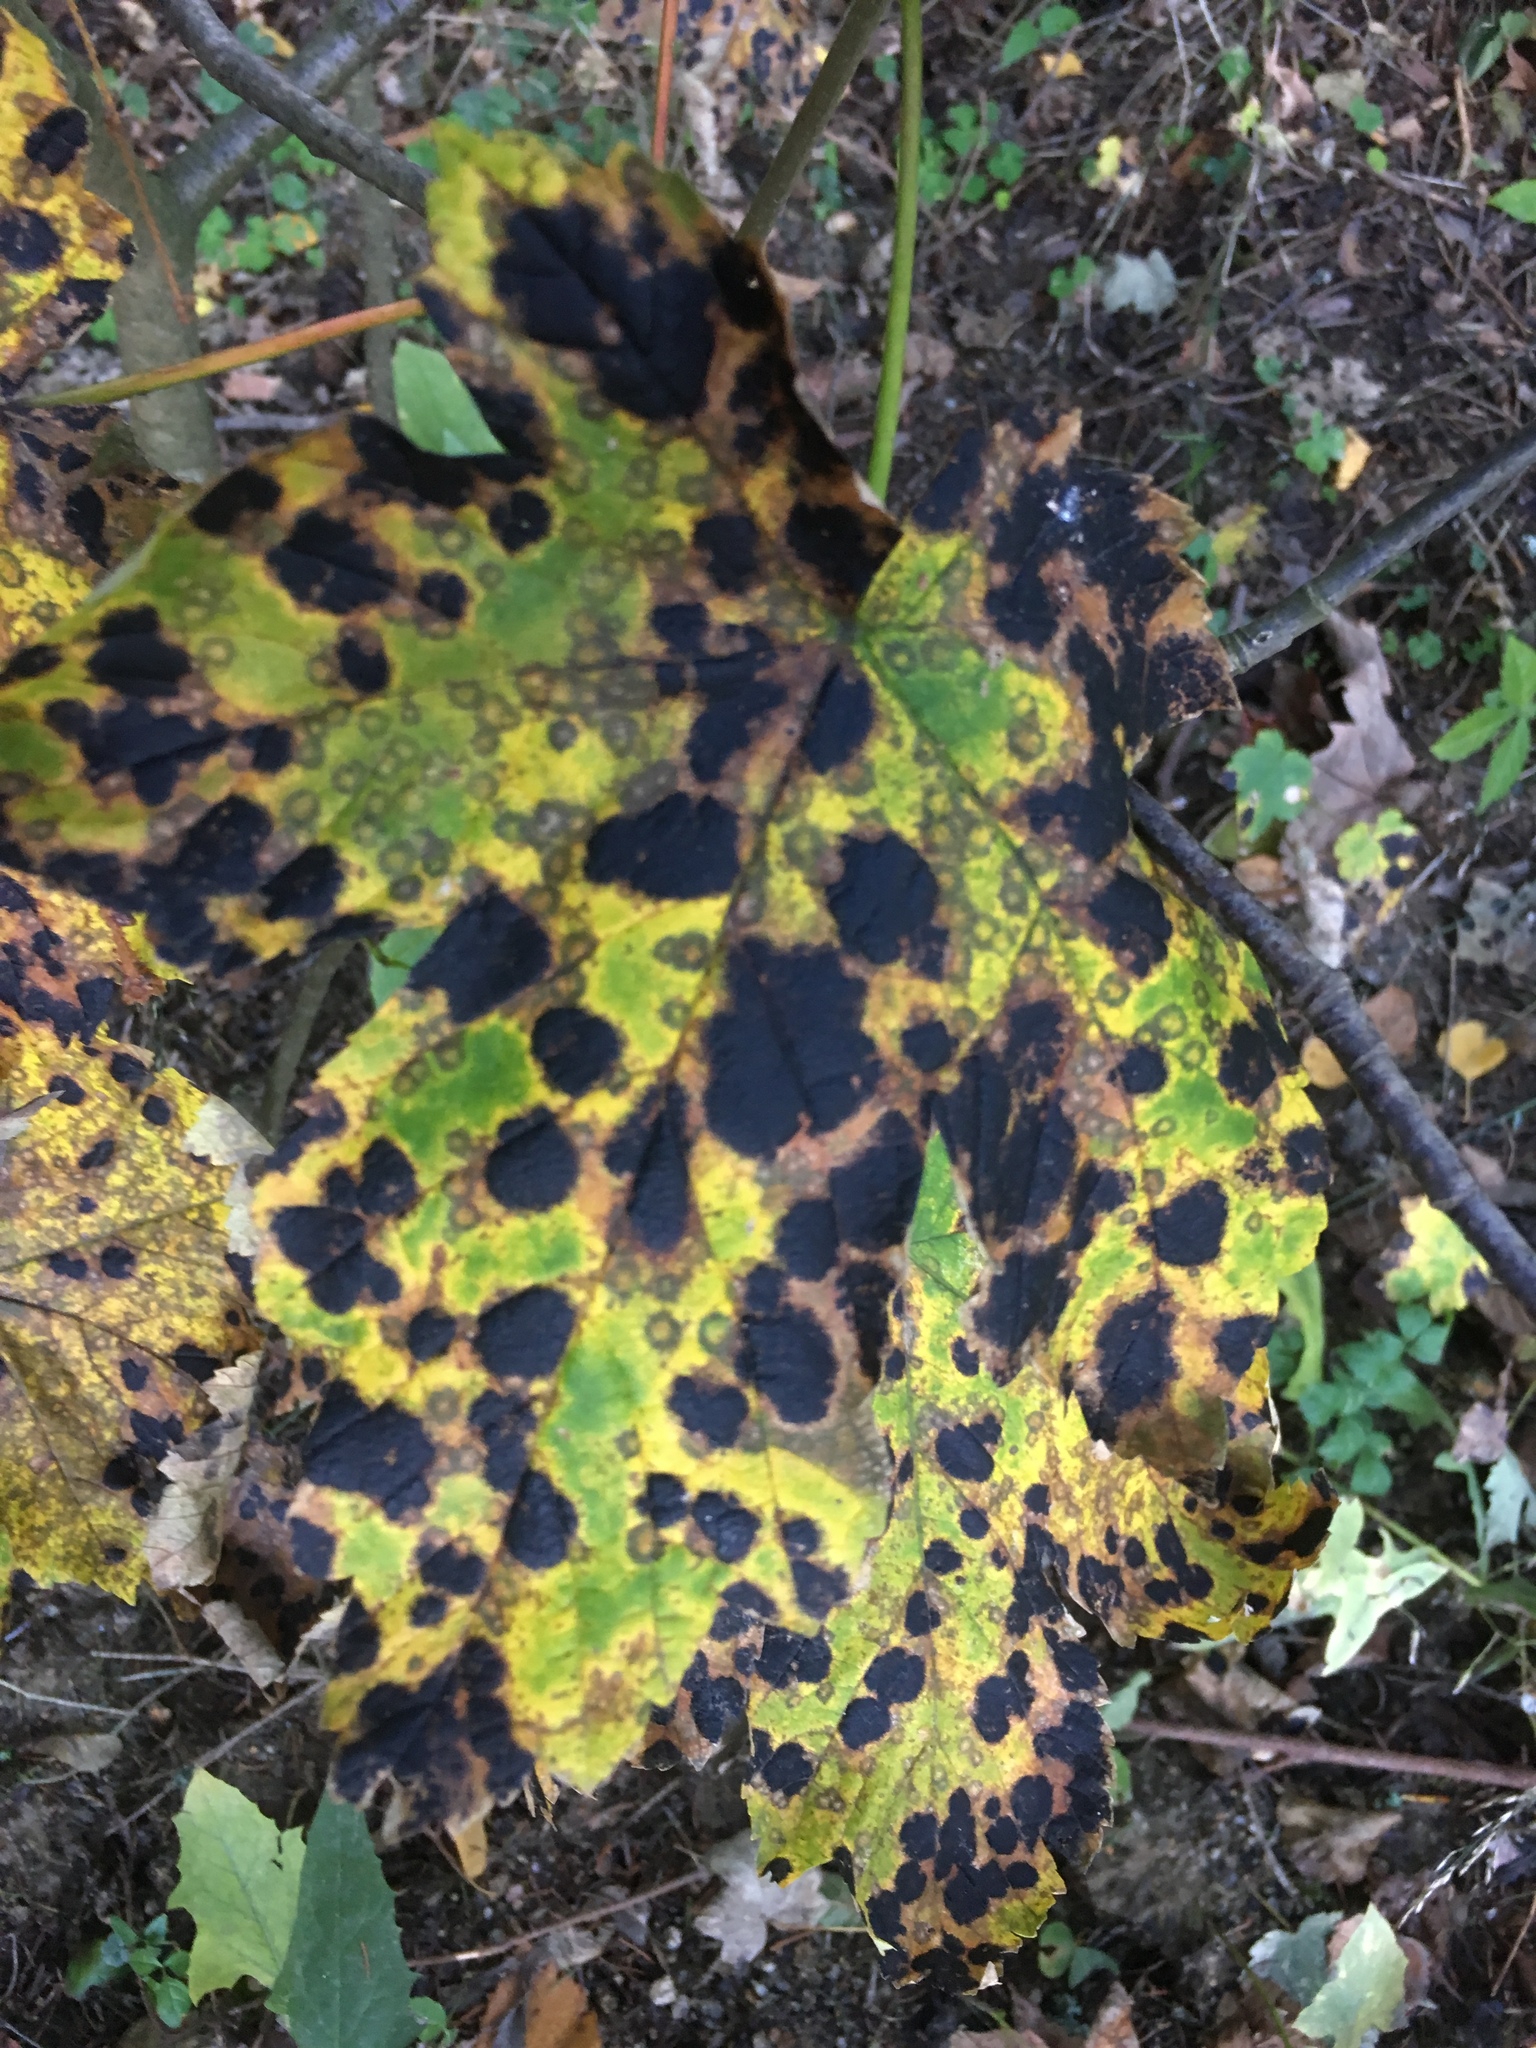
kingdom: Fungi
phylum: Ascomycota
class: Leotiomycetes
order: Rhytismatales
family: Rhytismataceae
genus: Rhytisma
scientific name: Rhytisma acerinum
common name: European tar spot
